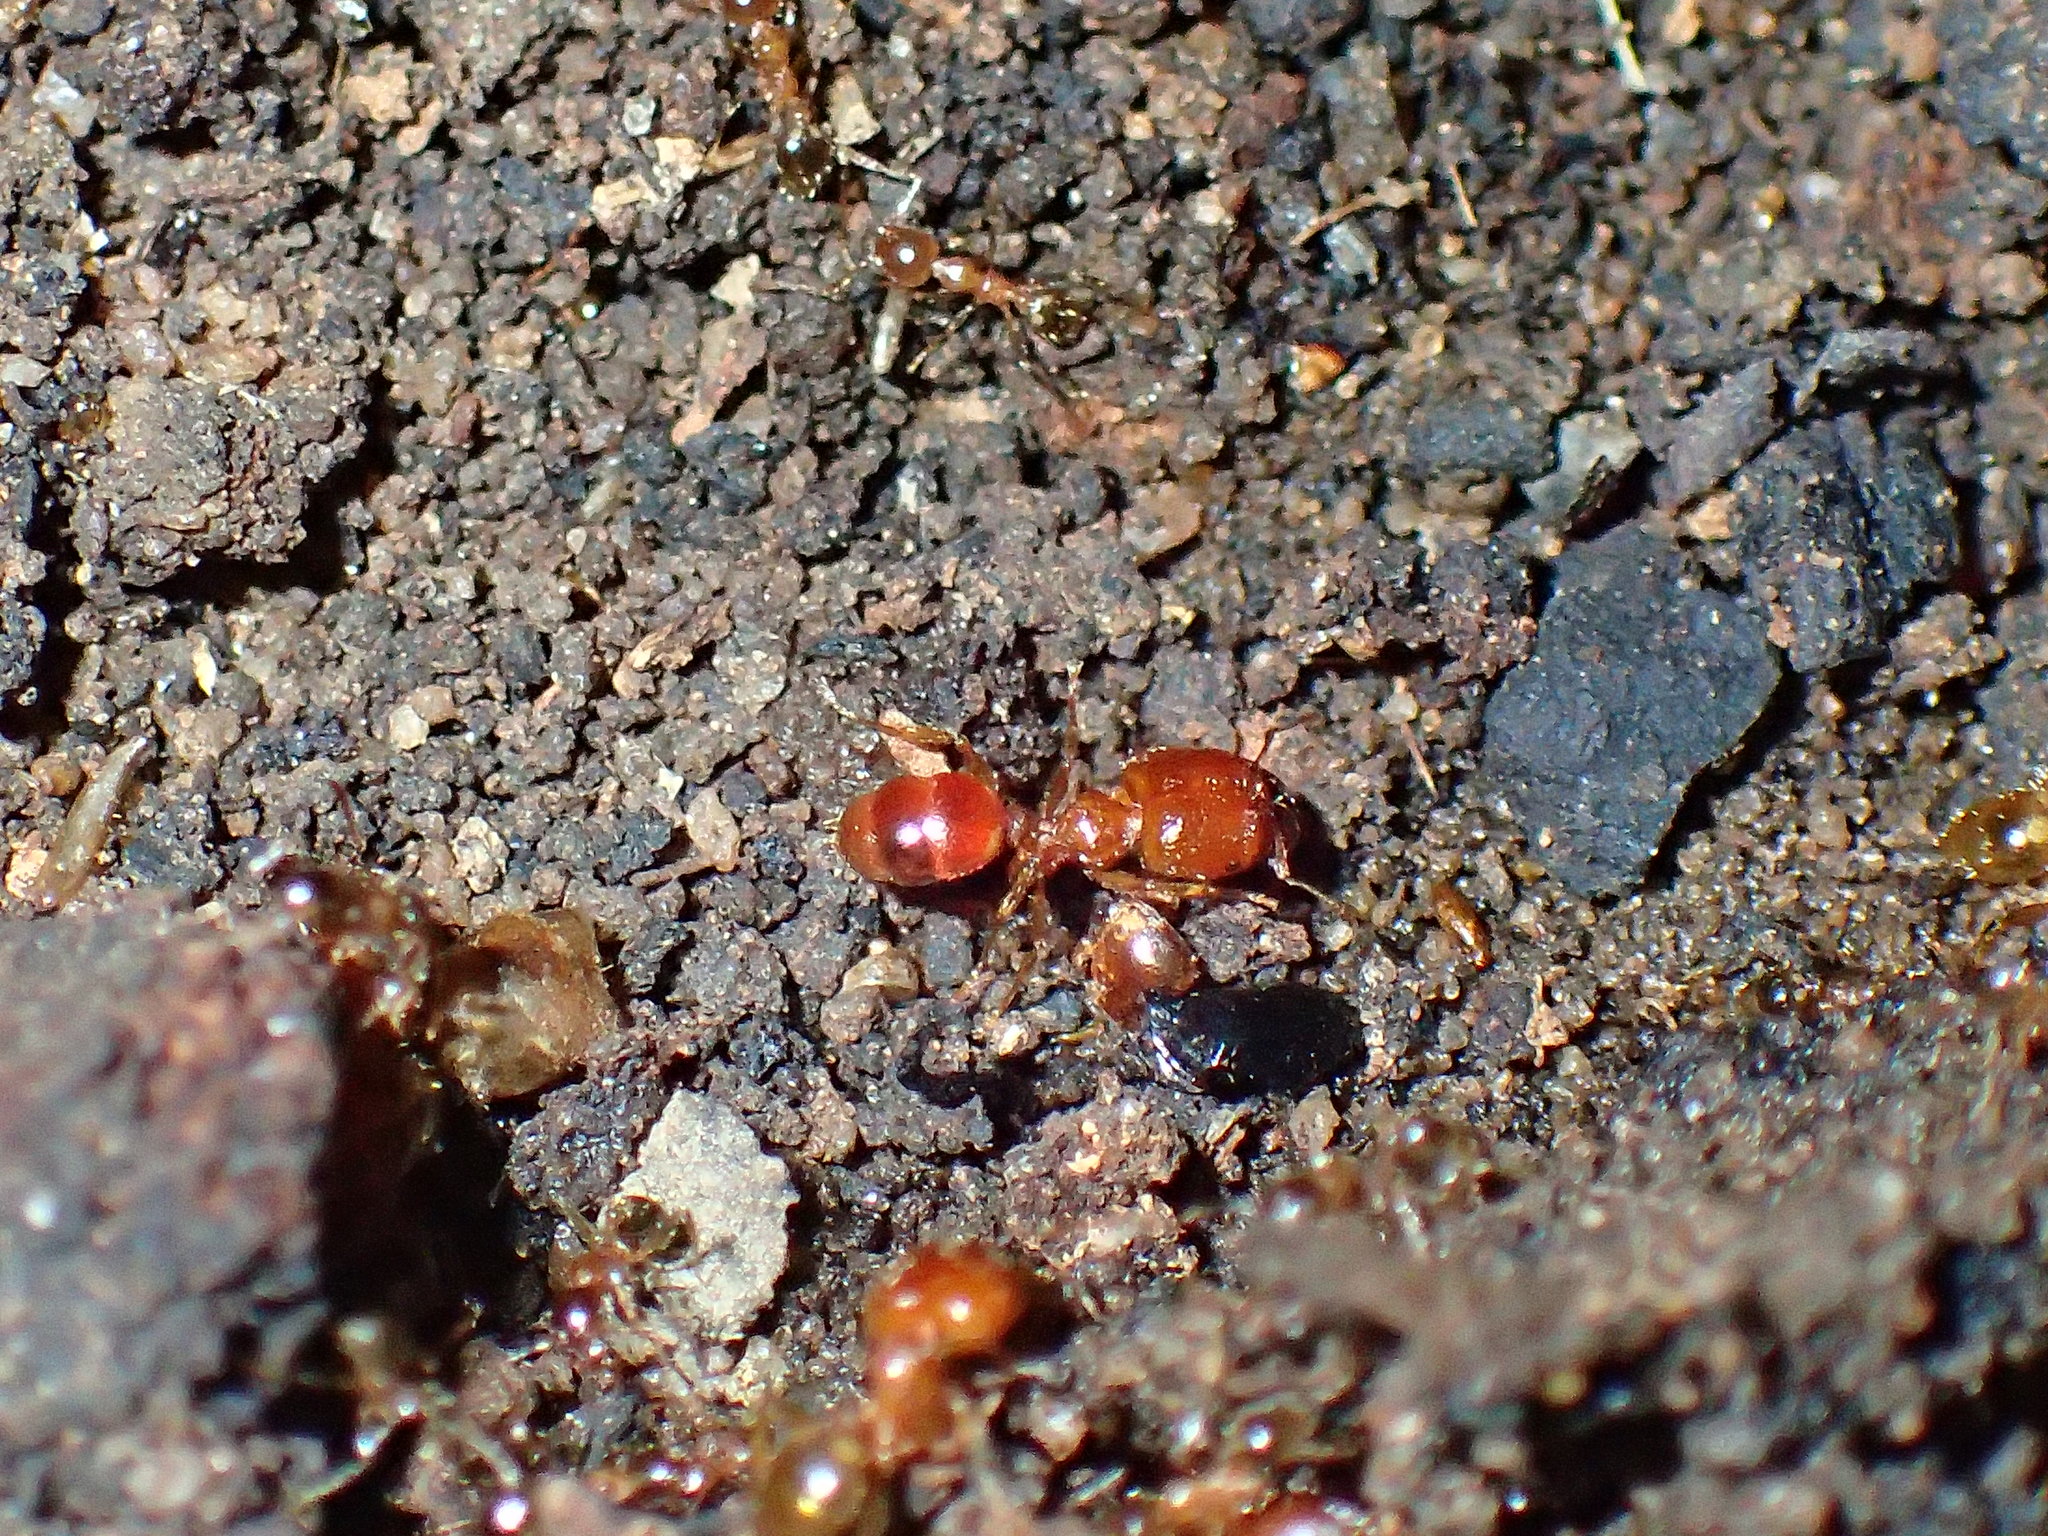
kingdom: Animalia
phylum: Arthropoda
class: Insecta
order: Hymenoptera
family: Formicidae
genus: Pheidole
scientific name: Pheidole megacephala
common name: Bigheaded ant
